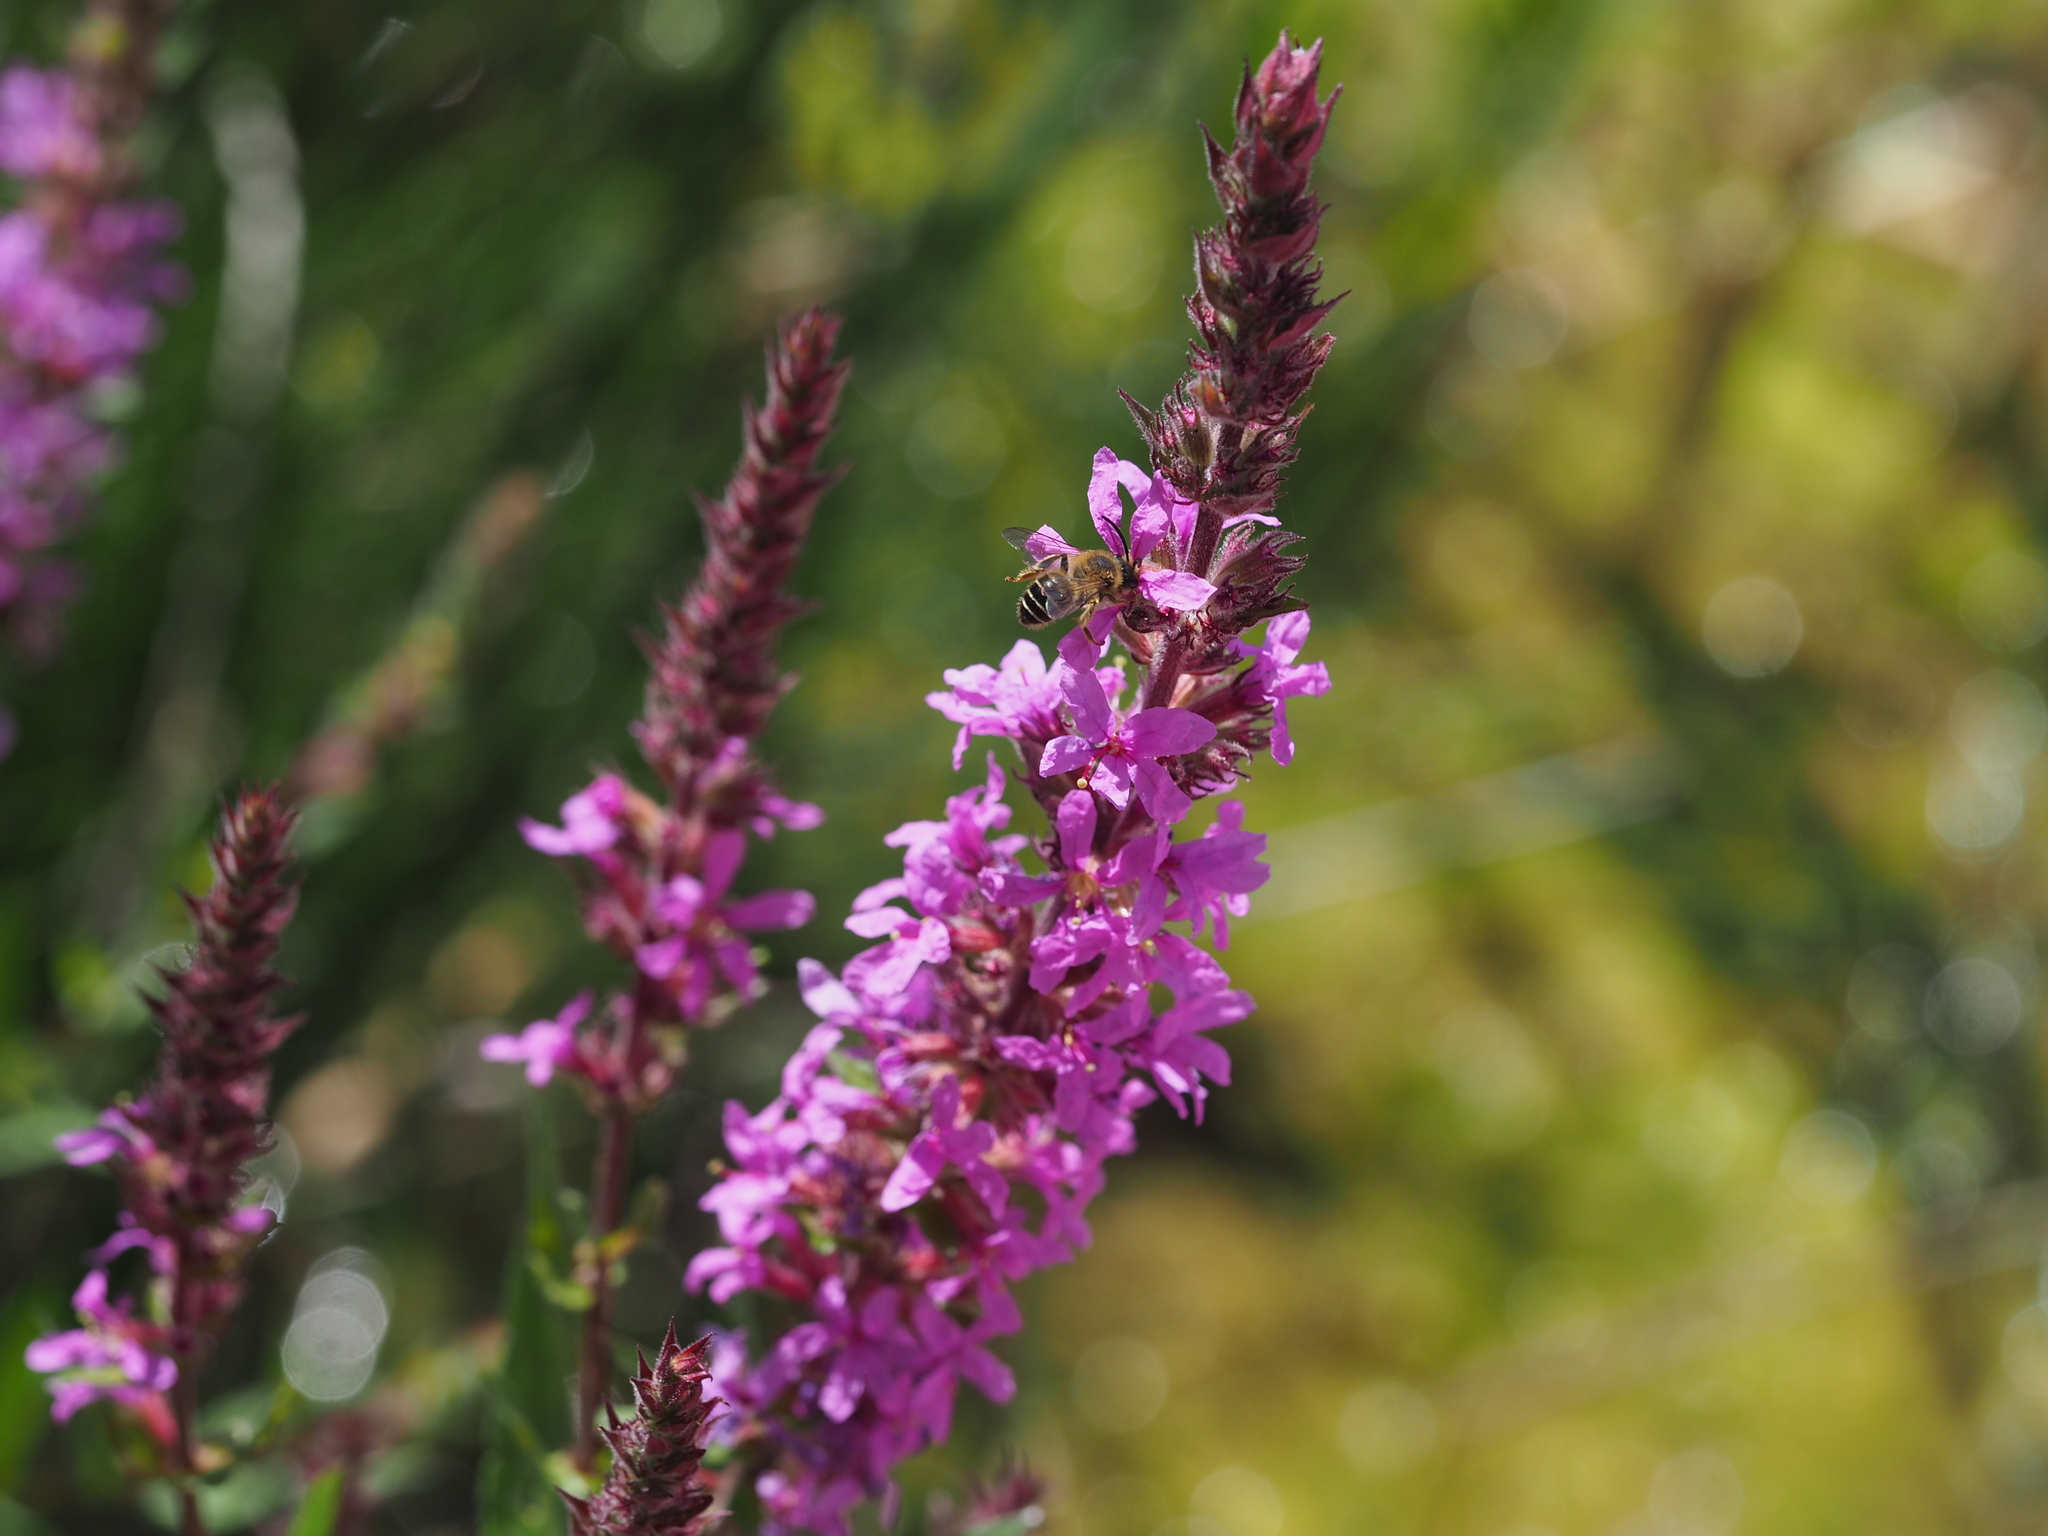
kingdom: Plantae
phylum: Tracheophyta
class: Magnoliopsida
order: Myrtales
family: Lythraceae
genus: Lythrum
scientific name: Lythrum salicaria
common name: Purple loosestrife
